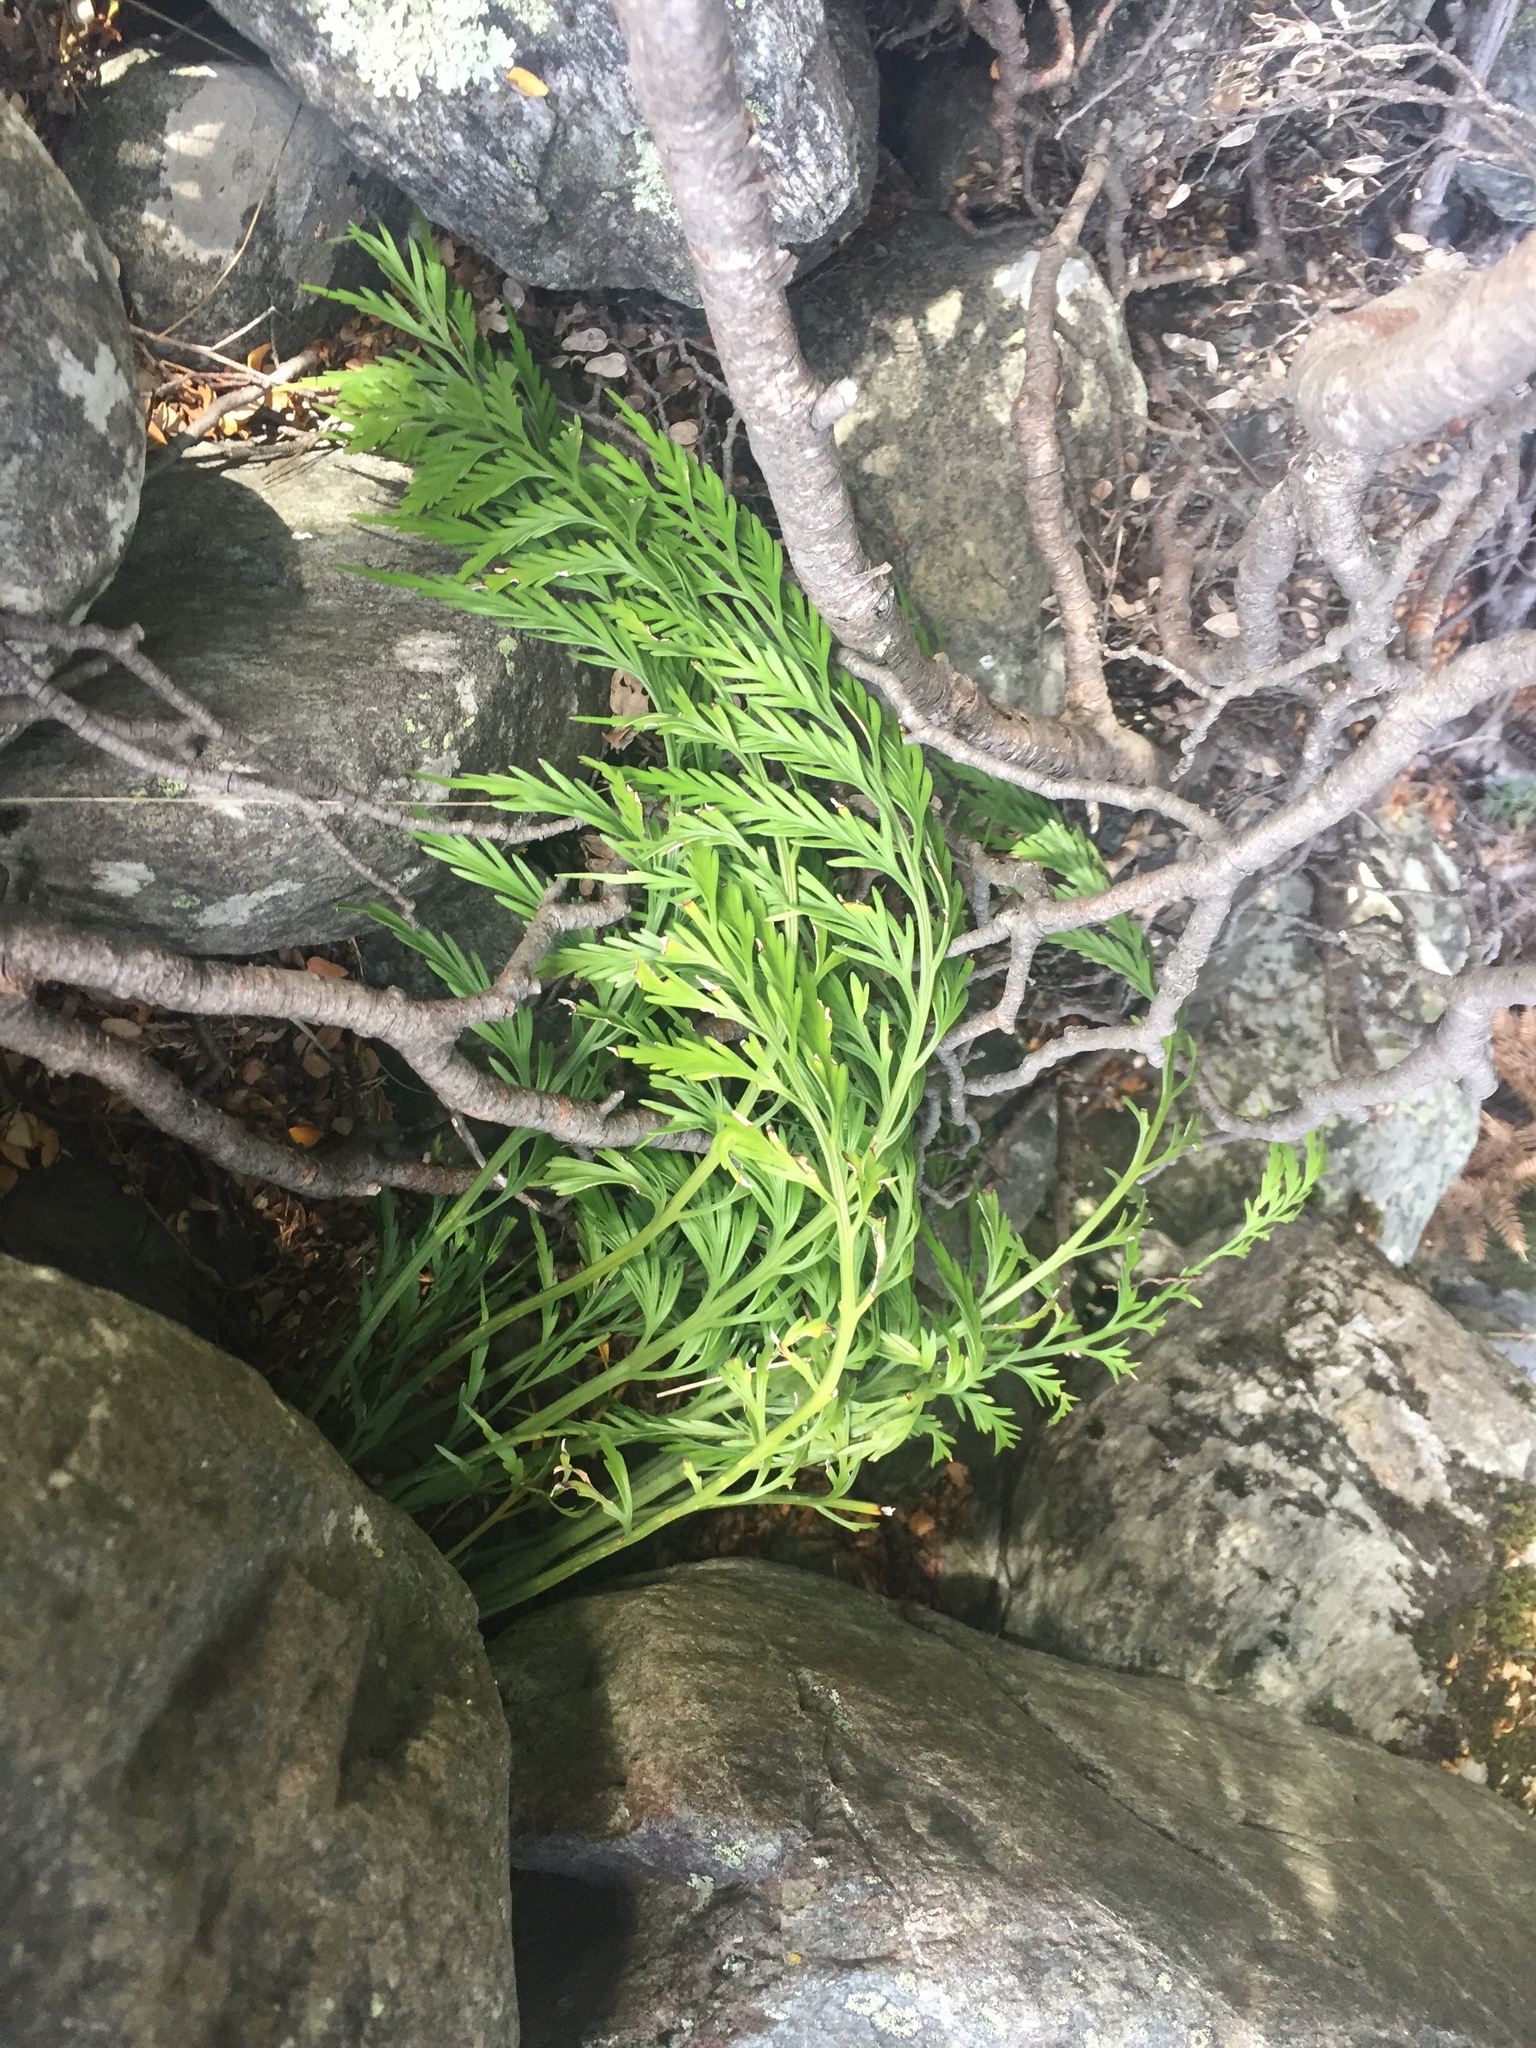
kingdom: Plantae
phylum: Tracheophyta
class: Polypodiopsida
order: Polypodiales
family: Aspleniaceae
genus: Asplenium
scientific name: Asplenium appendiculatum
